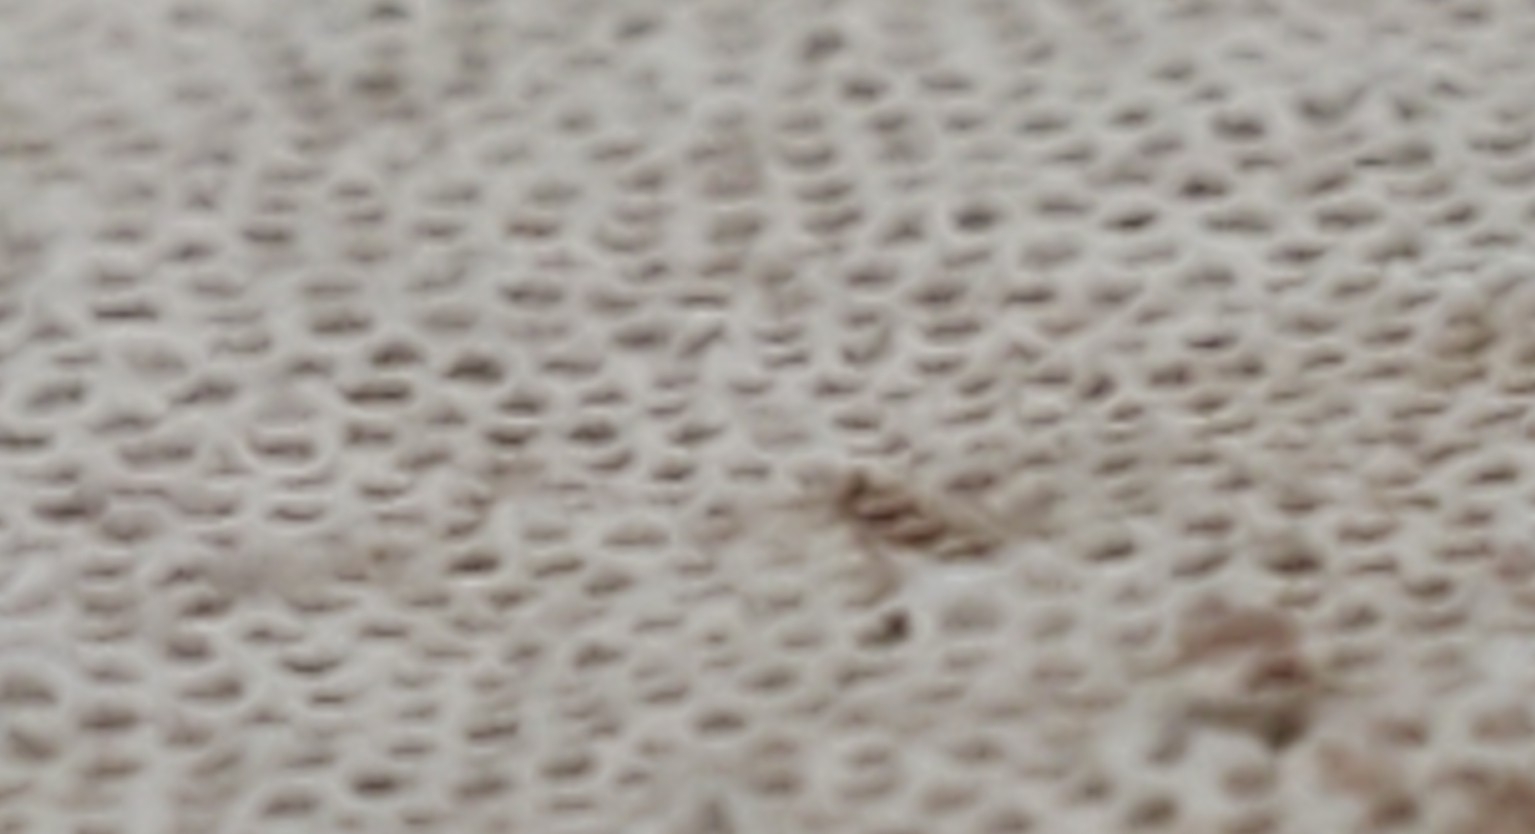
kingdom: Fungi
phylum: Basidiomycota
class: Agaricomycetes
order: Polyporales
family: Polyporaceae
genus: Fomes
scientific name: Fomes fomentarius
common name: Hoof fungus
